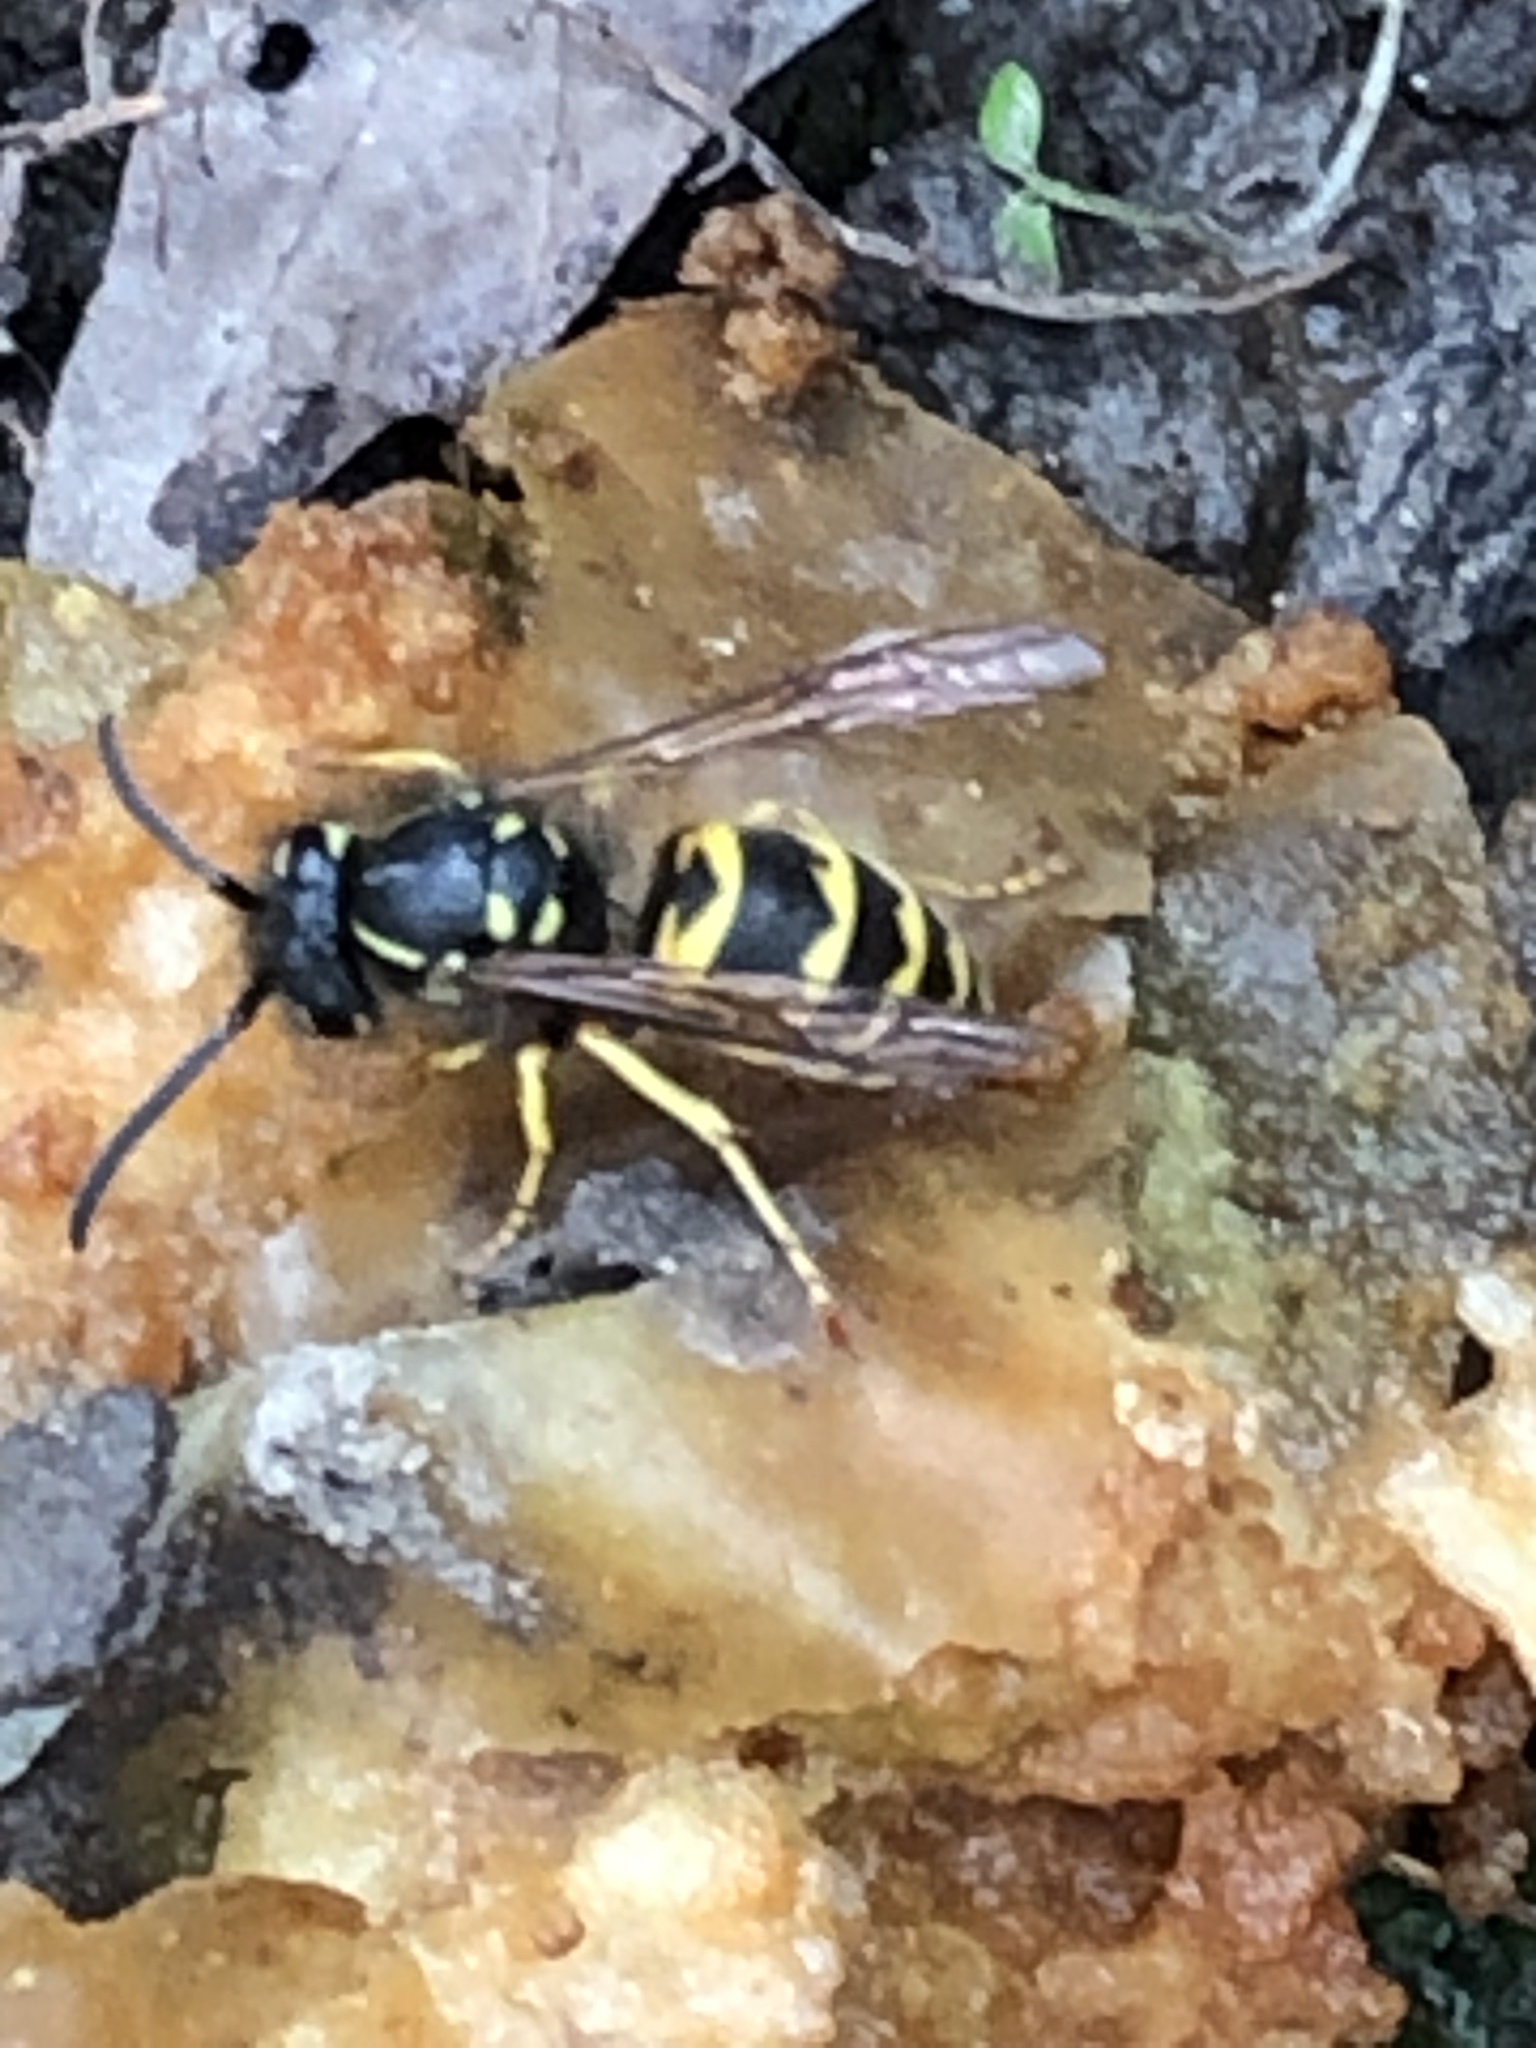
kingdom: Animalia
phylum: Arthropoda
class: Insecta
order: Hymenoptera
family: Vespidae
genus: Vespula
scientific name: Vespula
